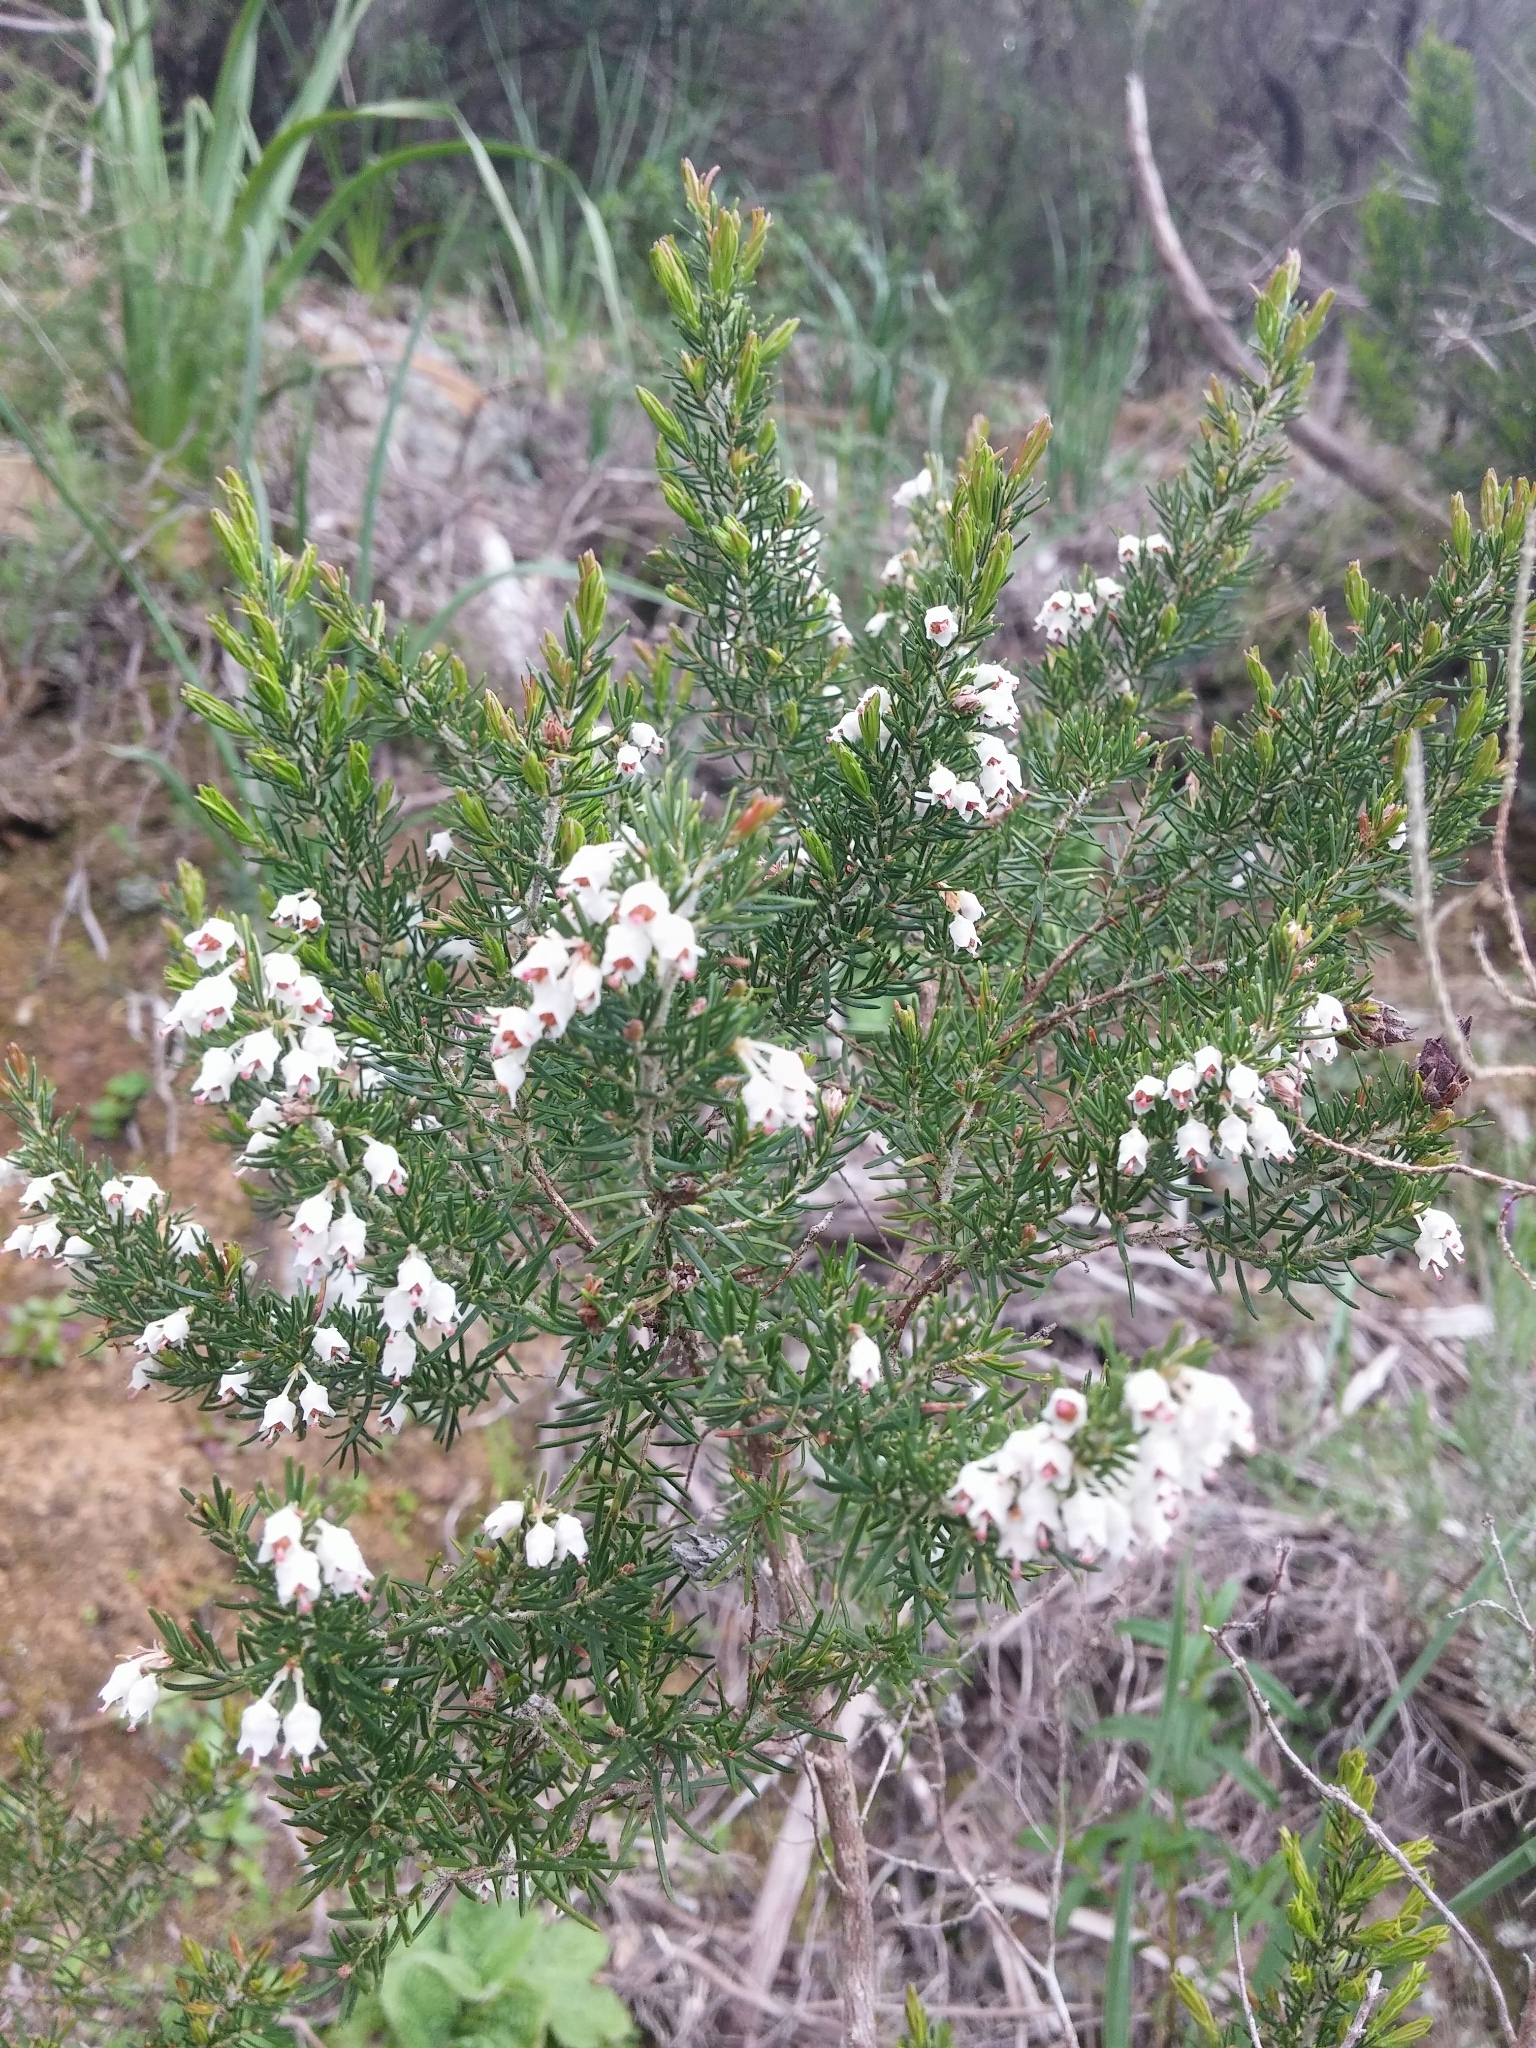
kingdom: Plantae
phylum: Tracheophyta
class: Magnoliopsida
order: Ericales
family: Ericaceae
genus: Erica
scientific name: Erica arborea
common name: Tree heath
